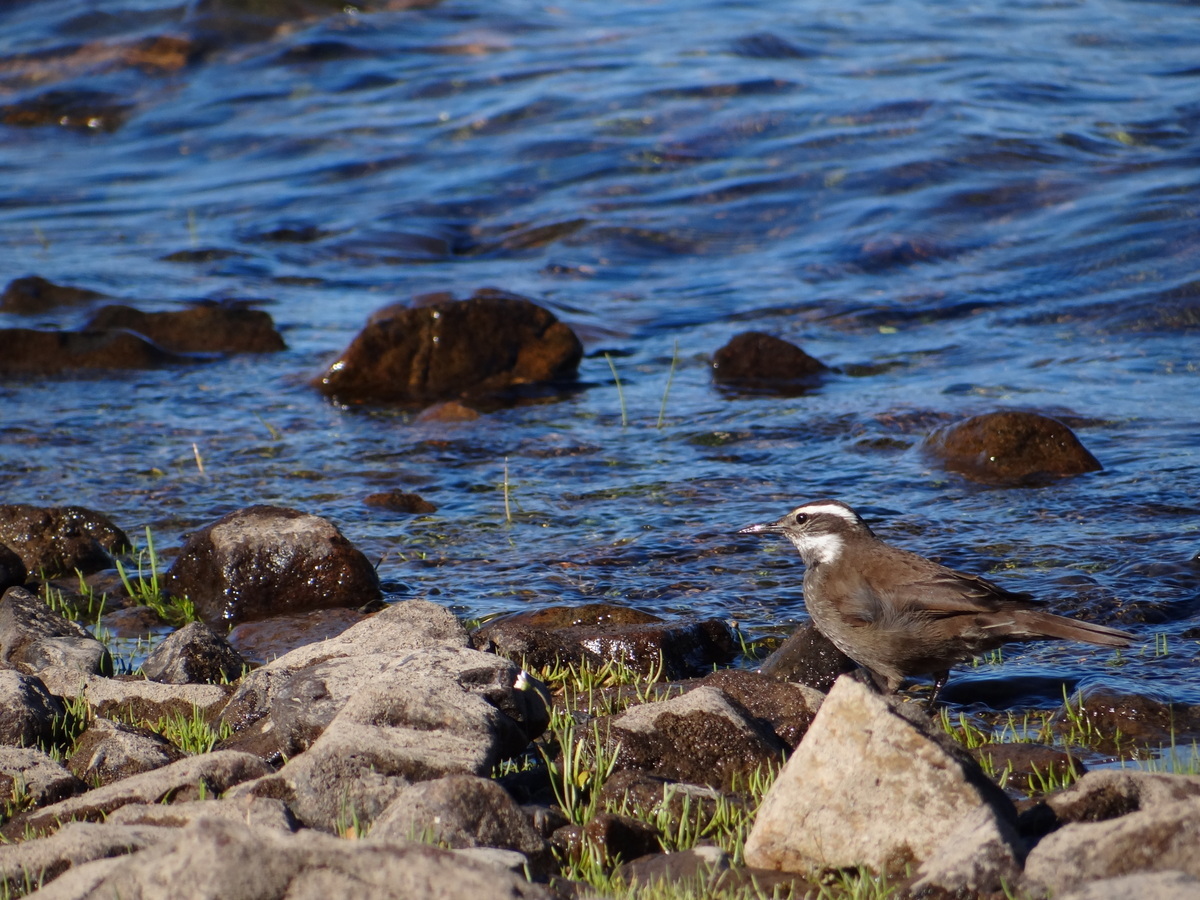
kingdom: Animalia
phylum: Chordata
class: Aves
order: Passeriformes
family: Furnariidae
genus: Cinclodes
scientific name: Cinclodes patagonicus
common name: Dark-bellied cinclodes
